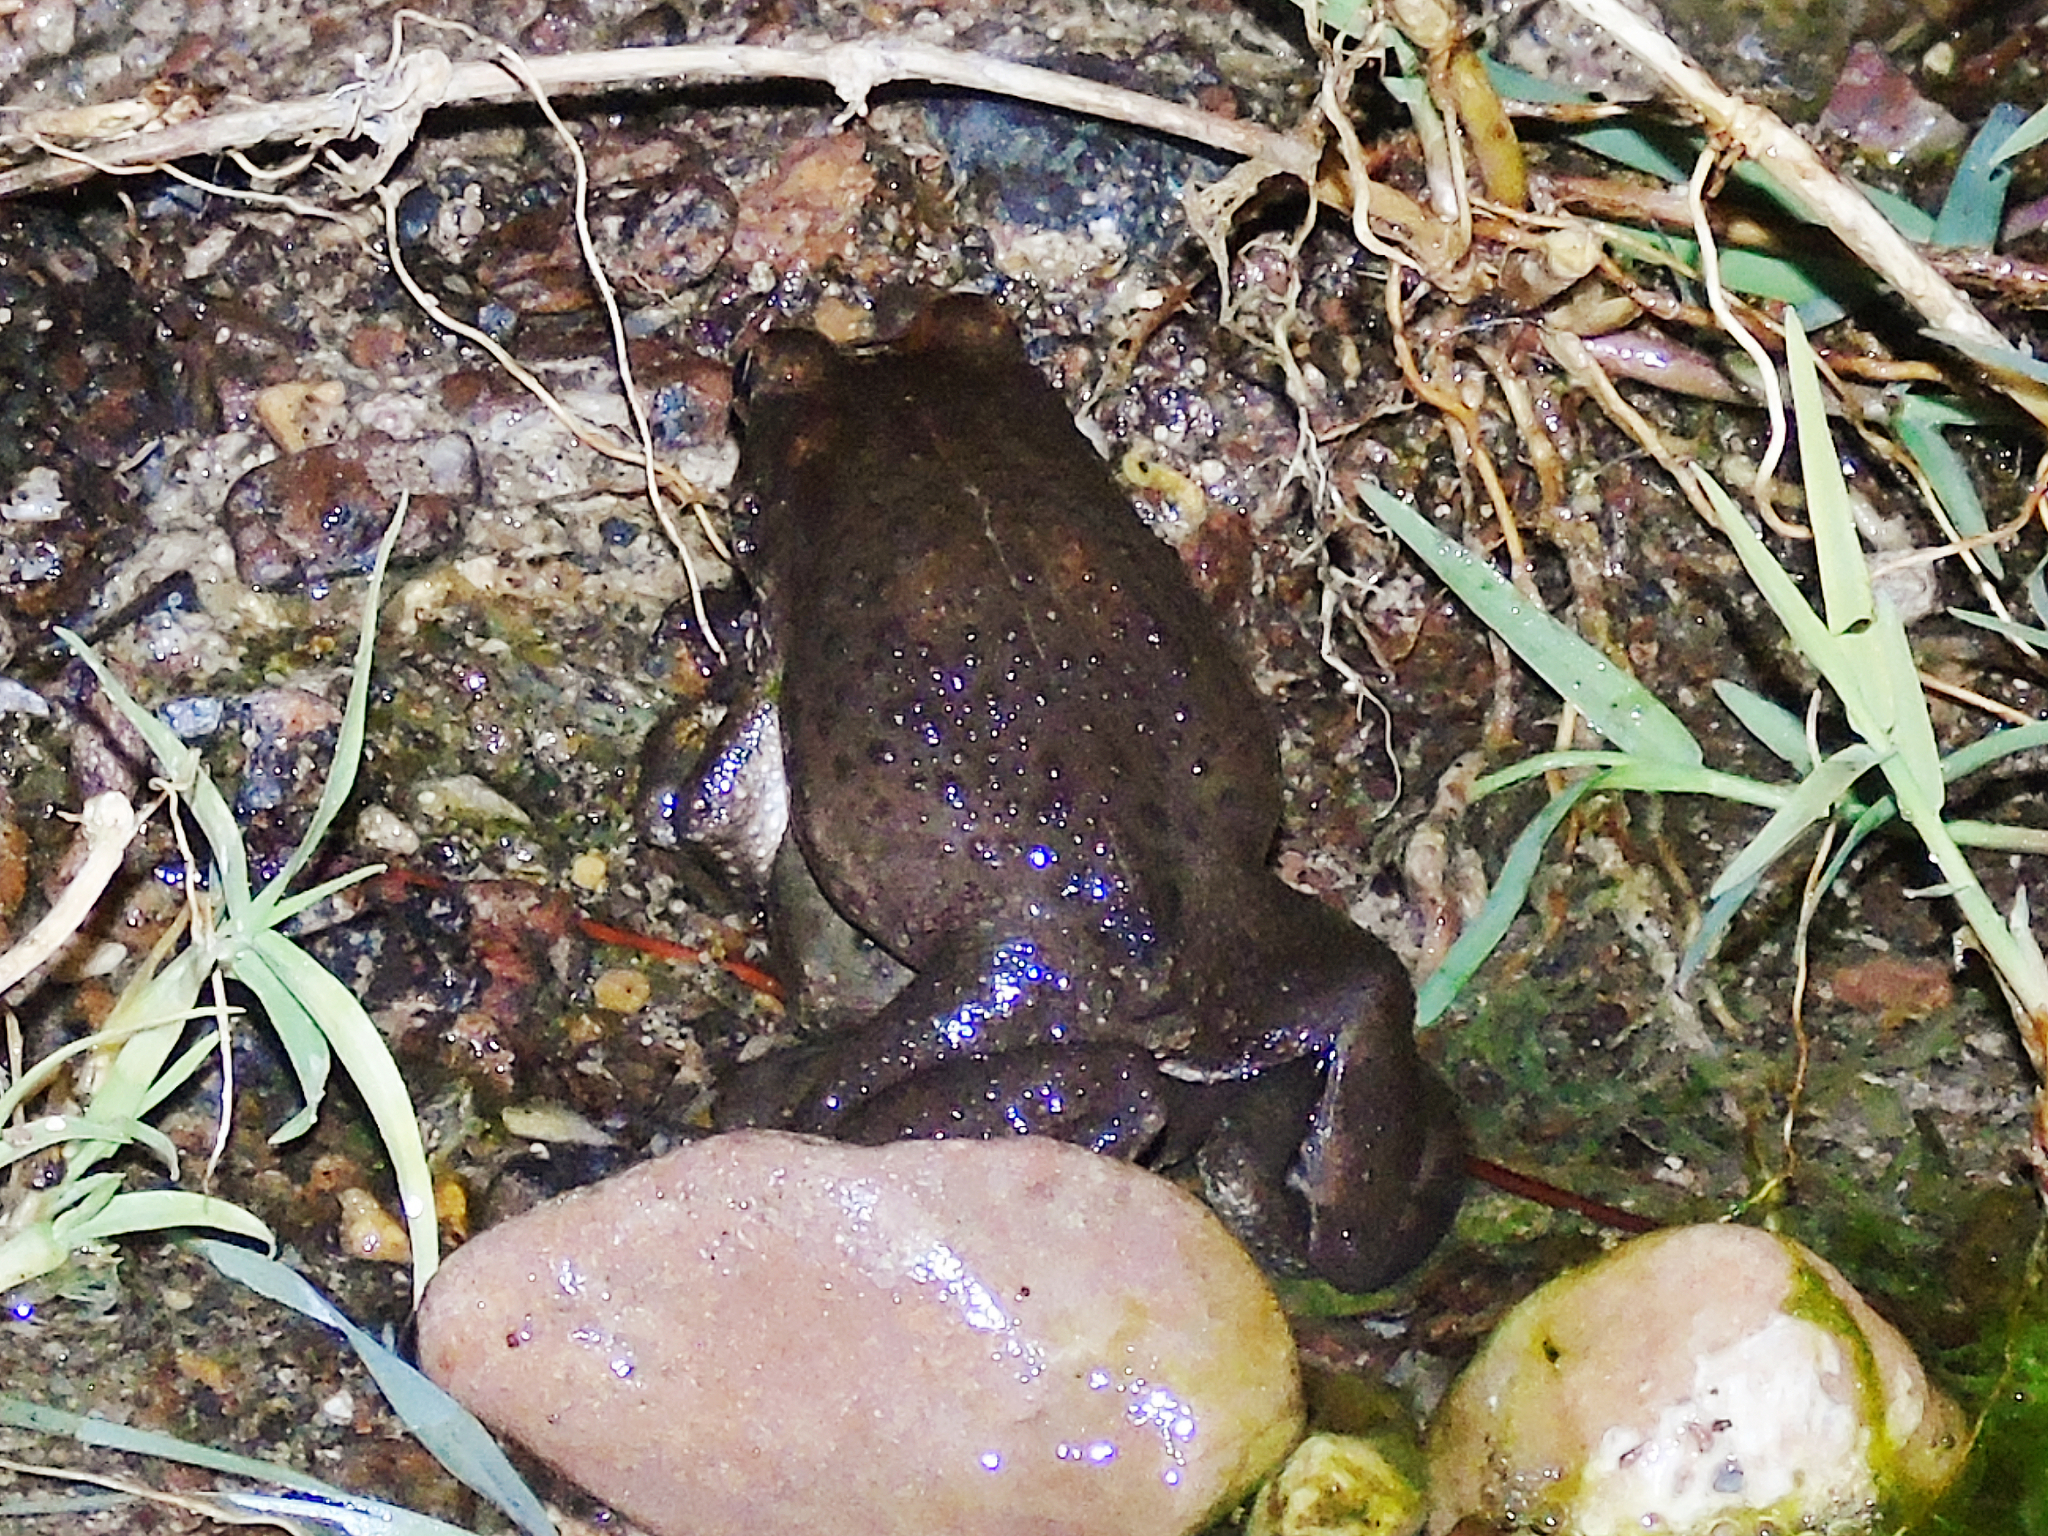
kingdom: Animalia
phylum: Chordata
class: Amphibia
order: Anura
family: Bufonidae
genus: Sclerophrys
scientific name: Sclerophrys arabica
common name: Arabian toad
